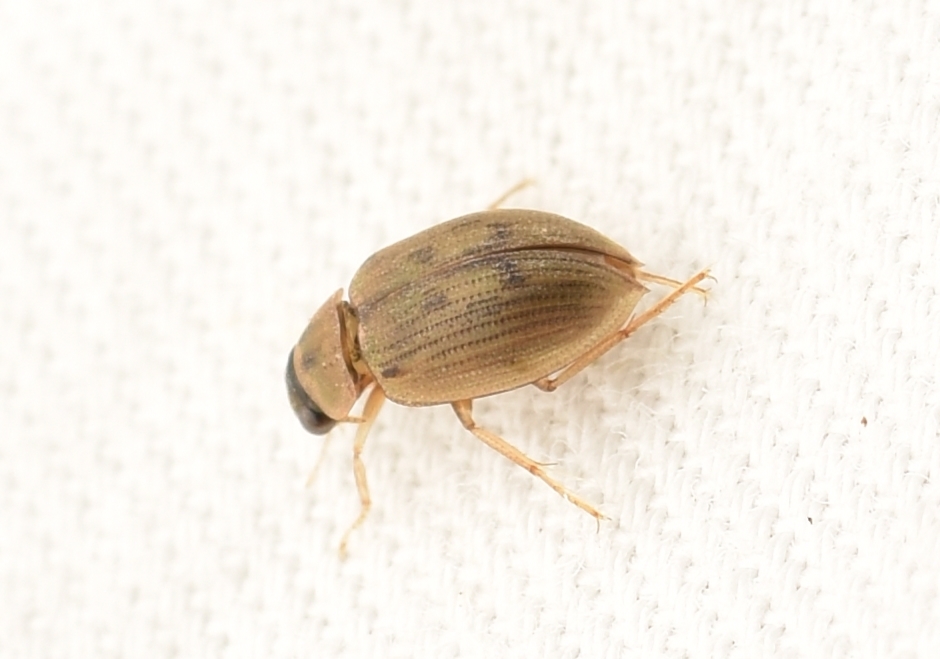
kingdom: Animalia
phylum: Arthropoda
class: Insecta
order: Coleoptera
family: Hydrophilidae
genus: Berosus
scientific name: Berosus peregrinus
